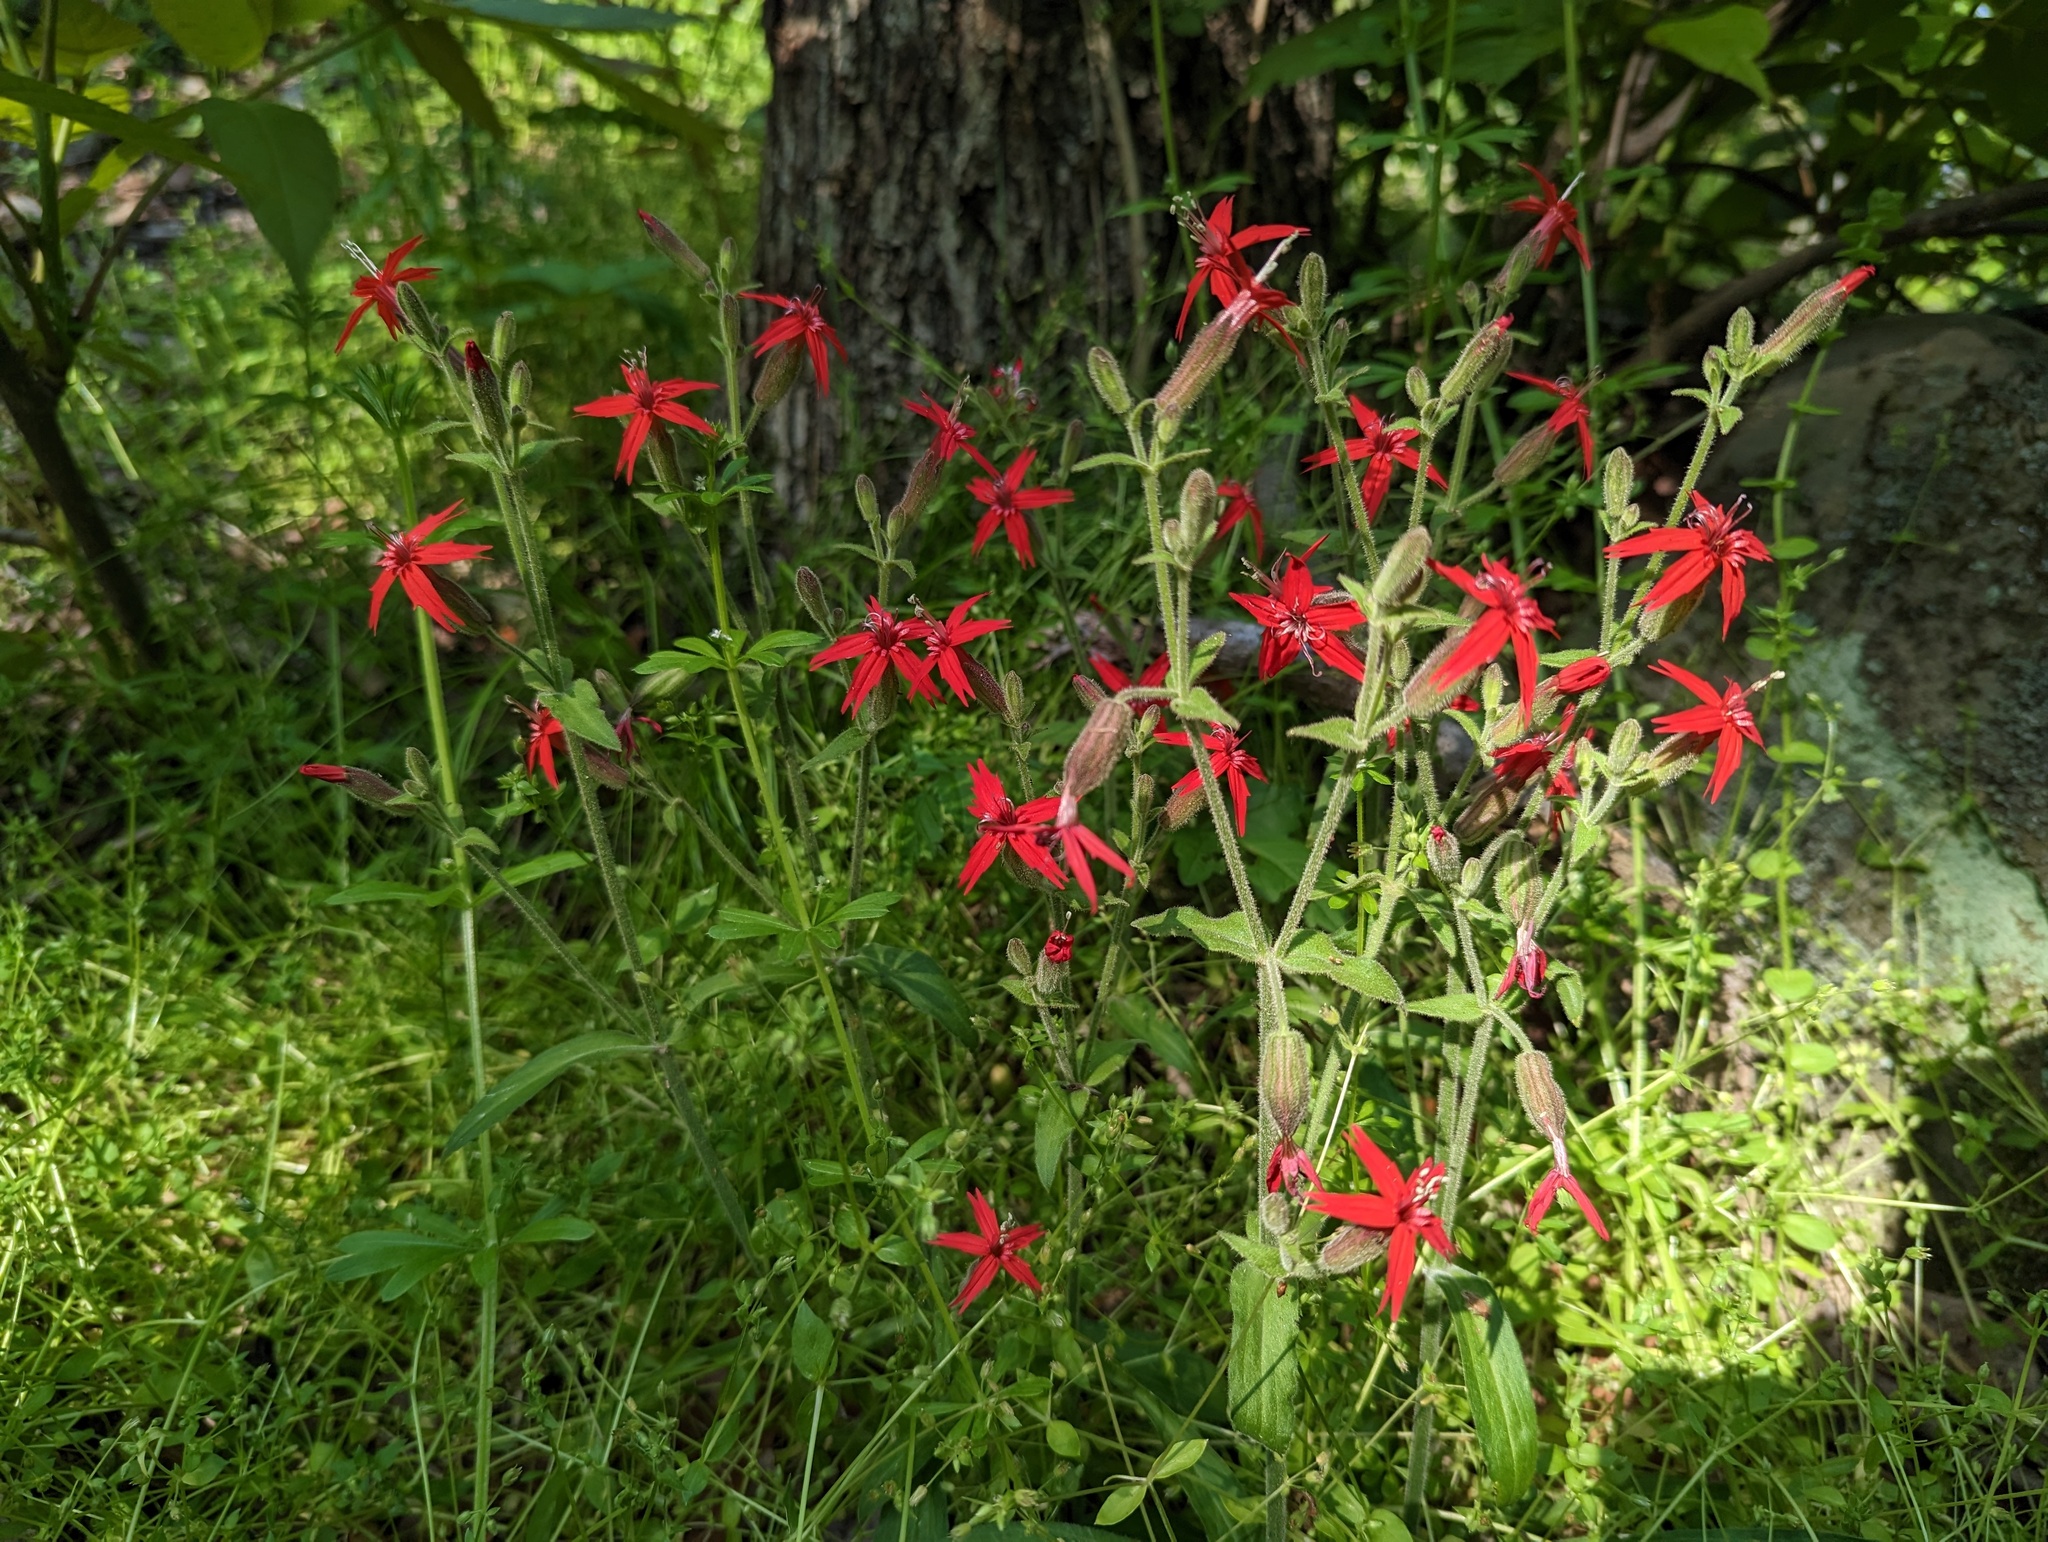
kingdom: Plantae
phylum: Tracheophyta
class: Magnoliopsida
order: Caryophyllales
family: Caryophyllaceae
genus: Silene
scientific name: Silene virginica
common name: Fire-pink
